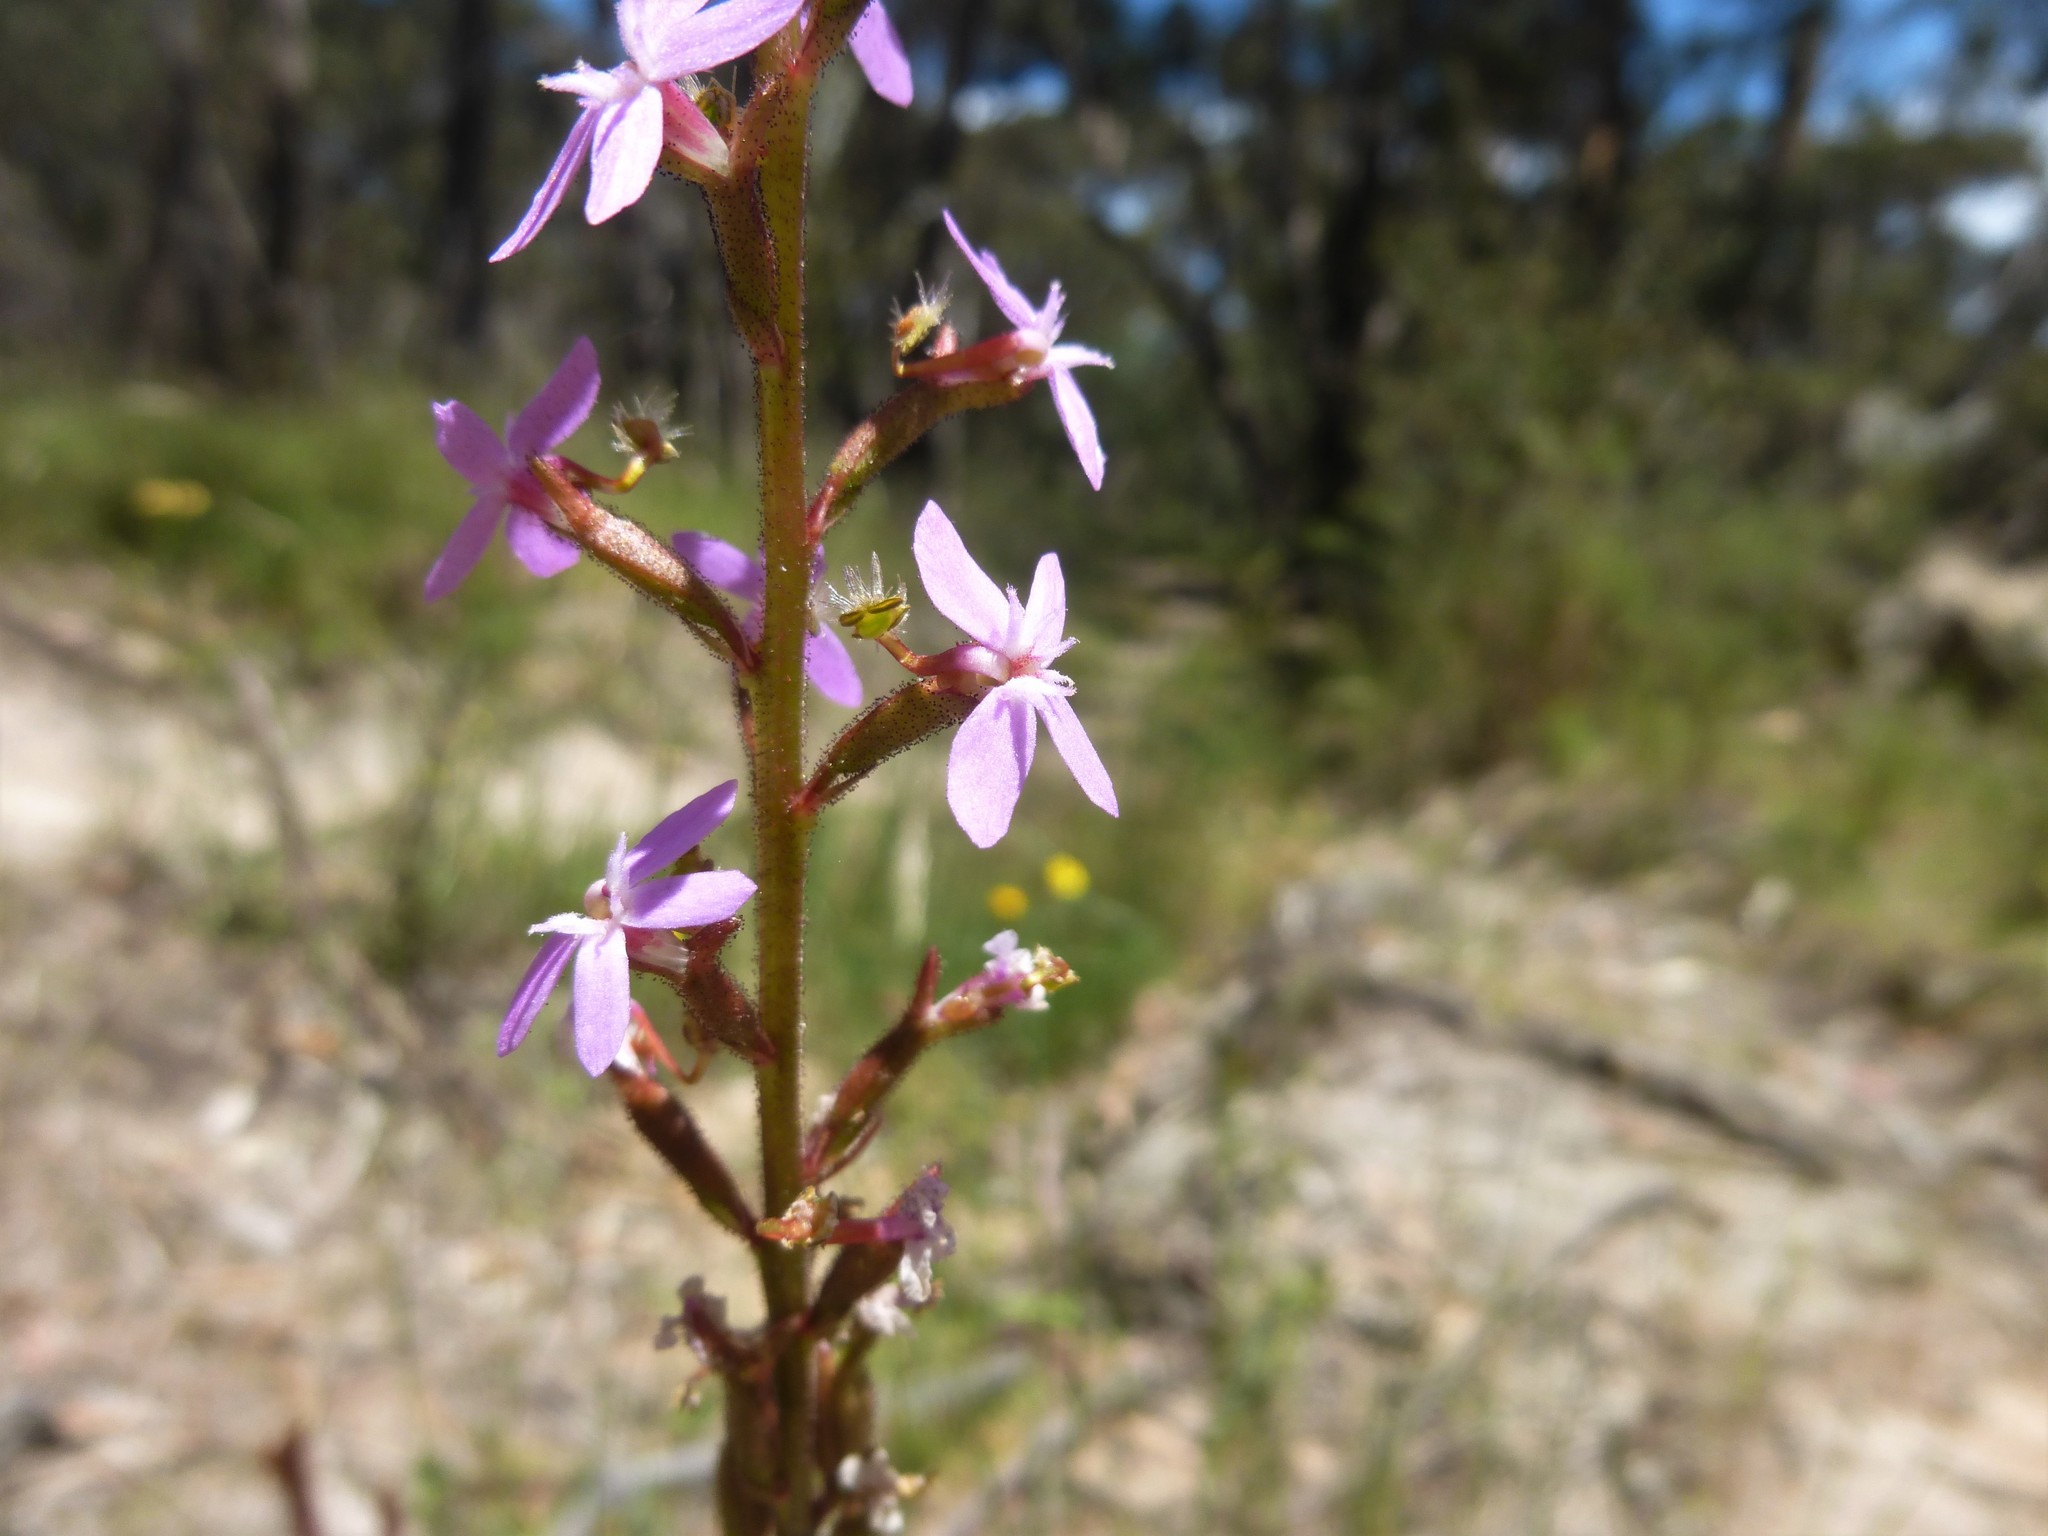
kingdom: Plantae
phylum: Tracheophyta
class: Magnoliopsida
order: Asterales
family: Stylidiaceae
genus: Stylidium
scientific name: Stylidium graminifolium
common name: Grass triggerplant
